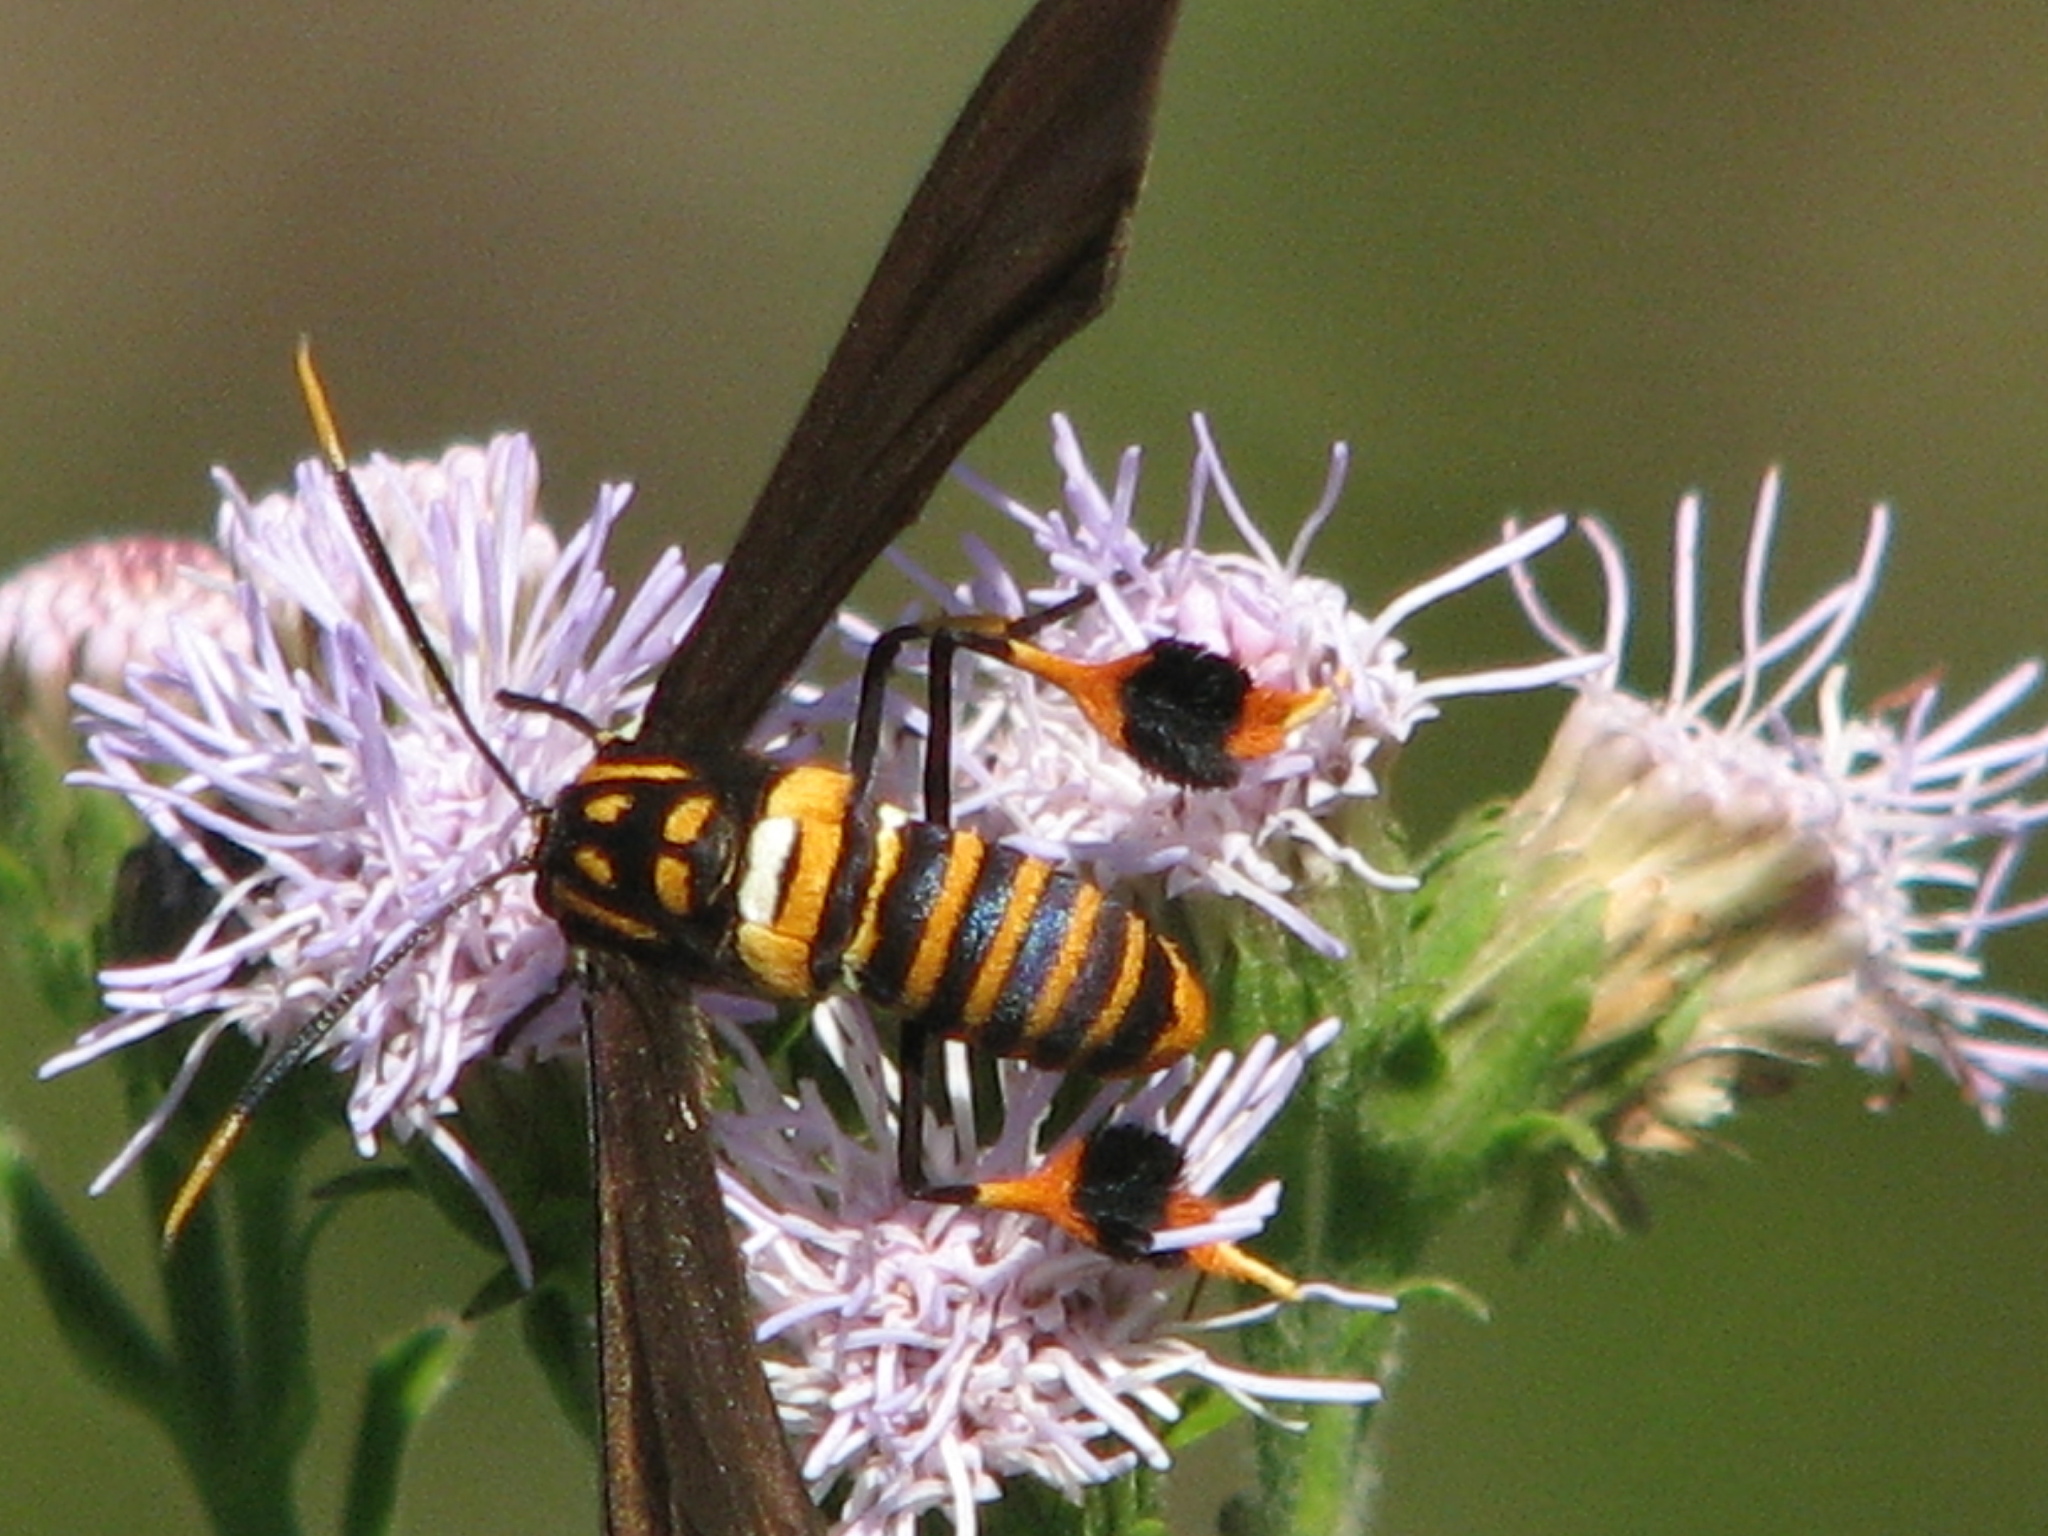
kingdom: Animalia
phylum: Arthropoda
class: Insecta
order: Lepidoptera
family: Erebidae
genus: Horama
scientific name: Horama panthalon
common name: Texas wasp moth
